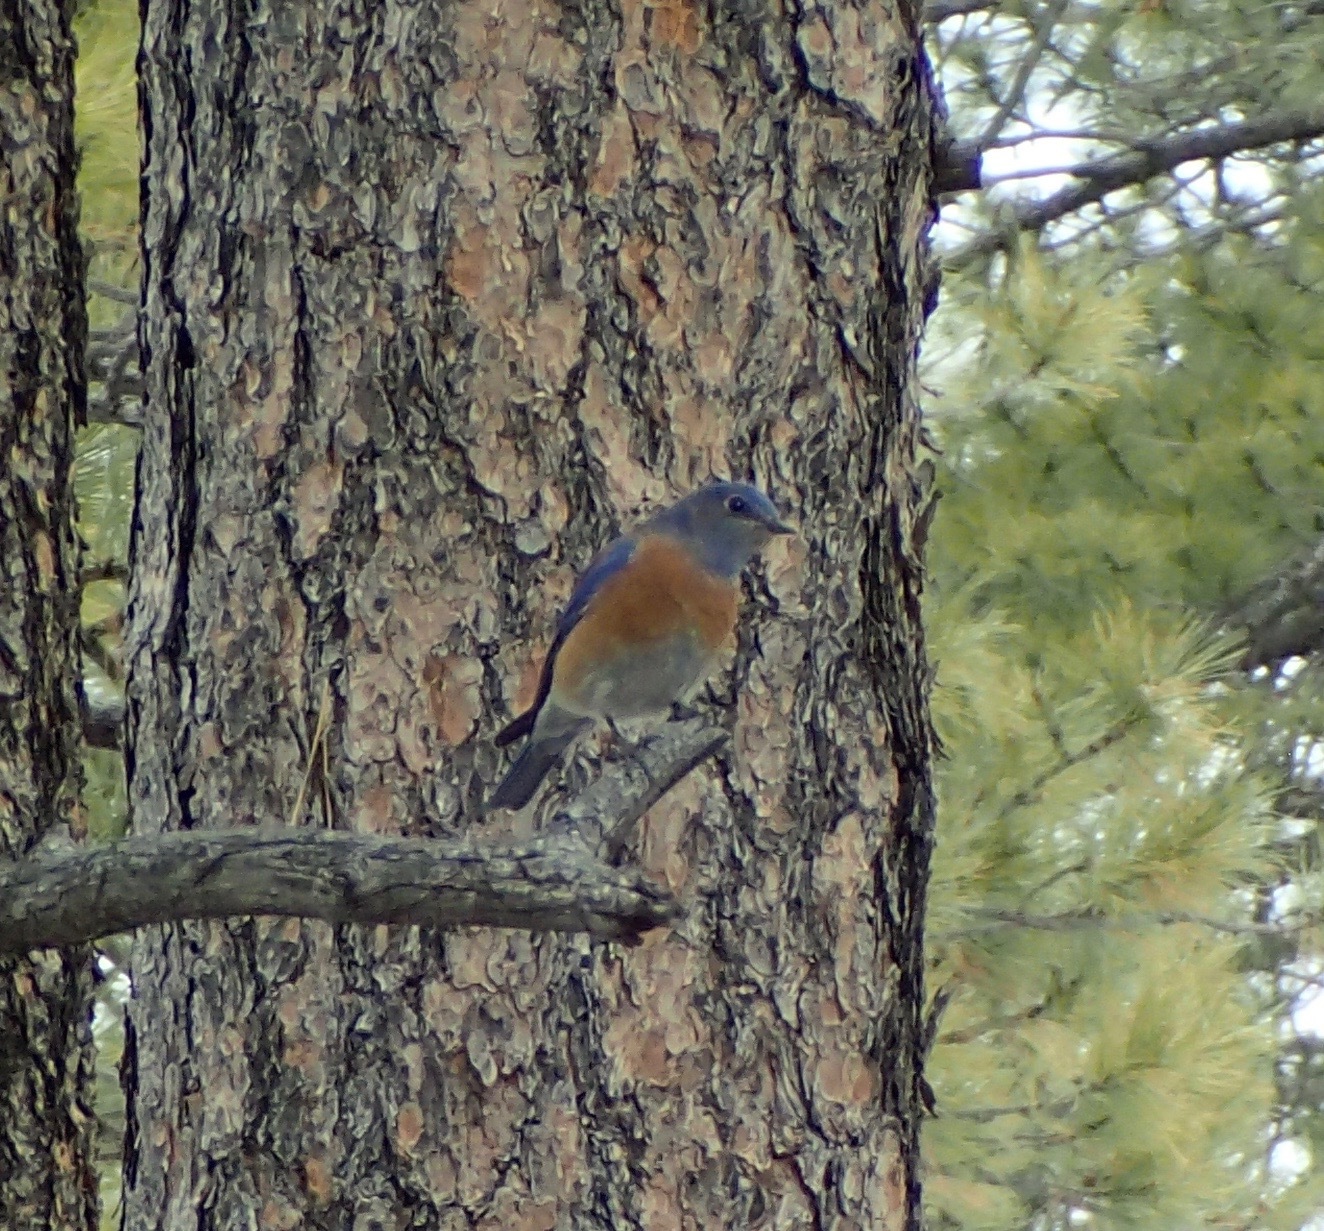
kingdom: Animalia
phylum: Chordata
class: Aves
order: Passeriformes
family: Turdidae
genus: Sialia
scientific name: Sialia mexicana
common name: Western bluebird
